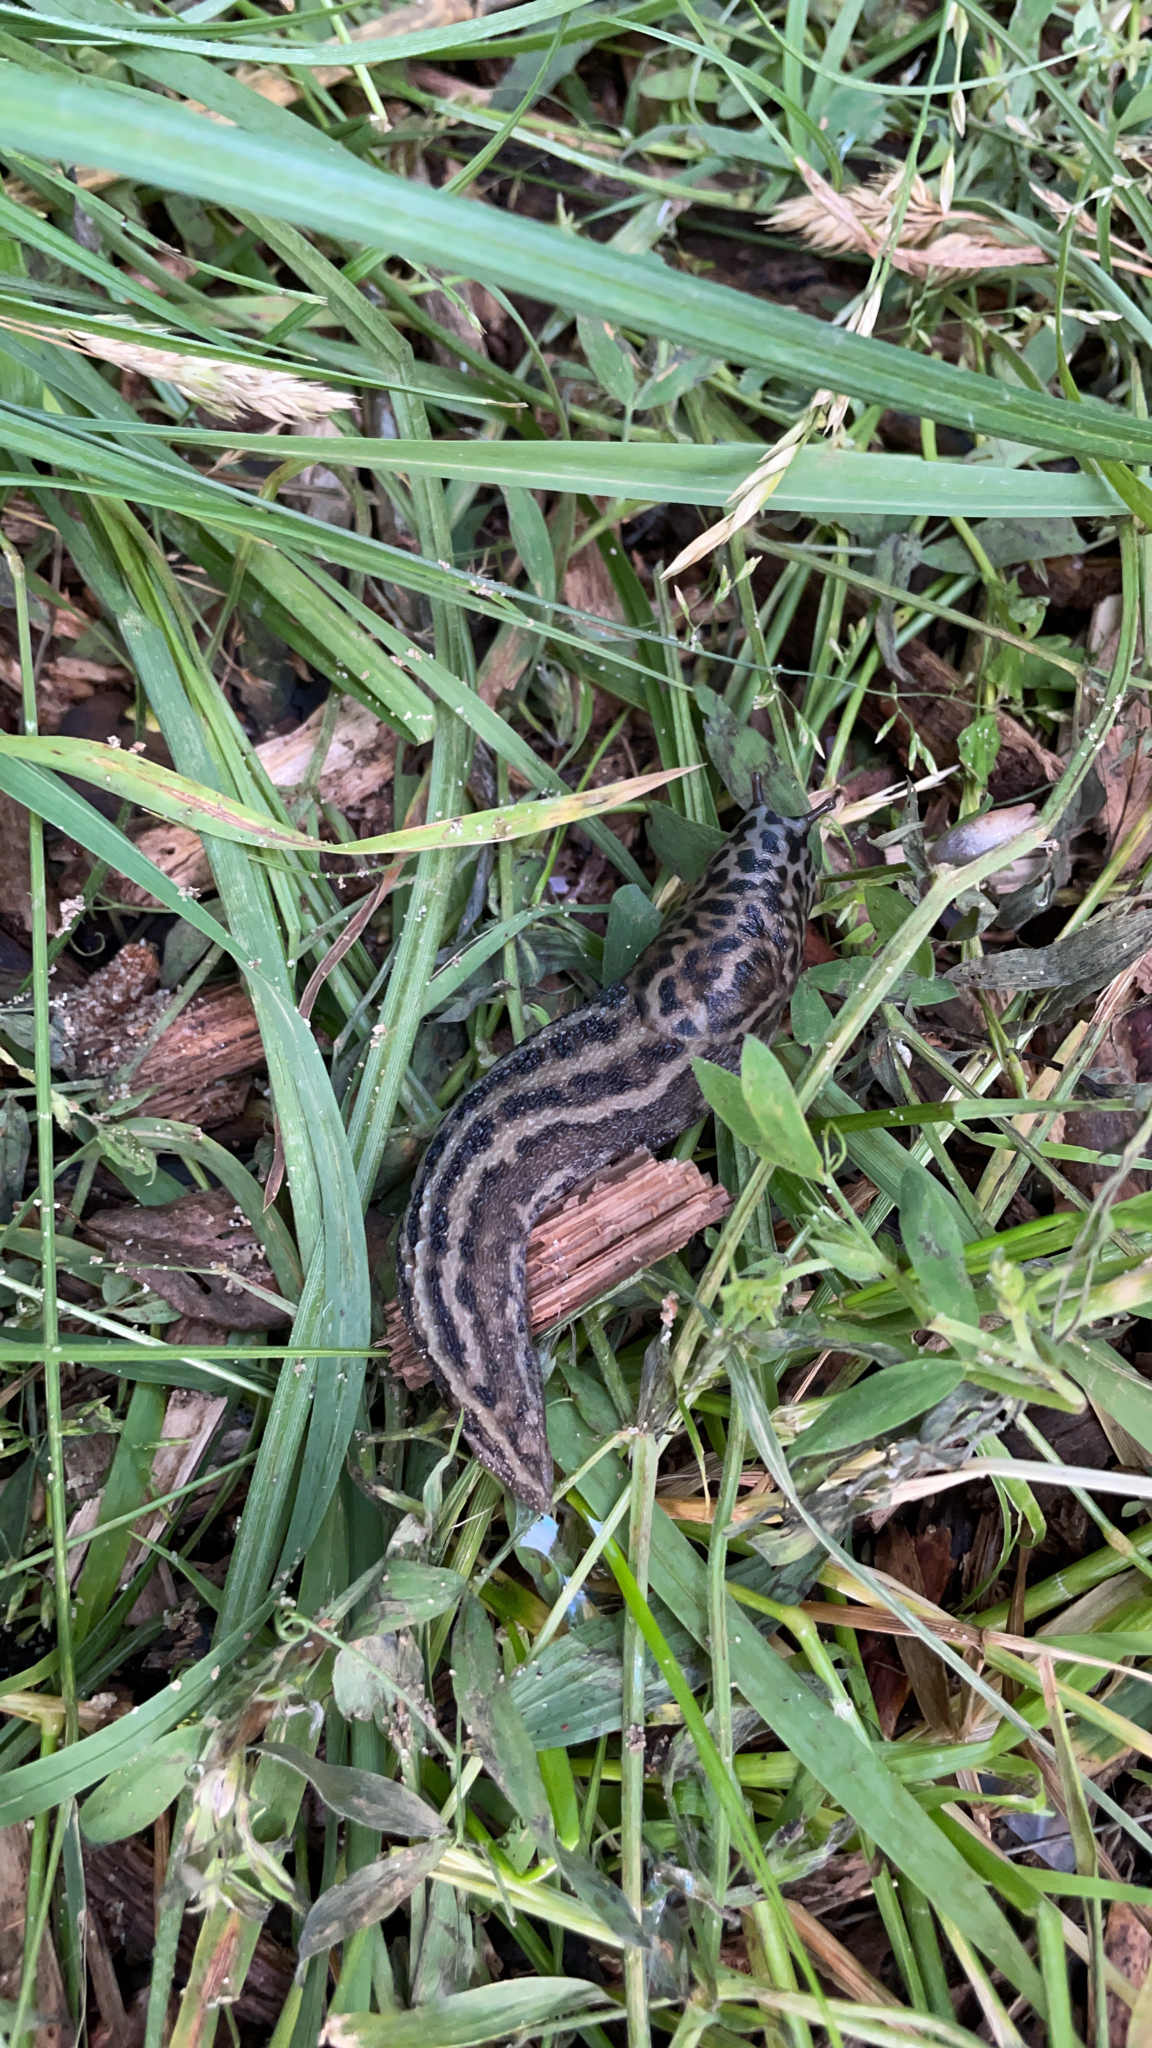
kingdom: Animalia
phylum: Mollusca
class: Gastropoda
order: Stylommatophora
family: Limacidae
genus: Limax
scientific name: Limax maximus
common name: Great grey slug
